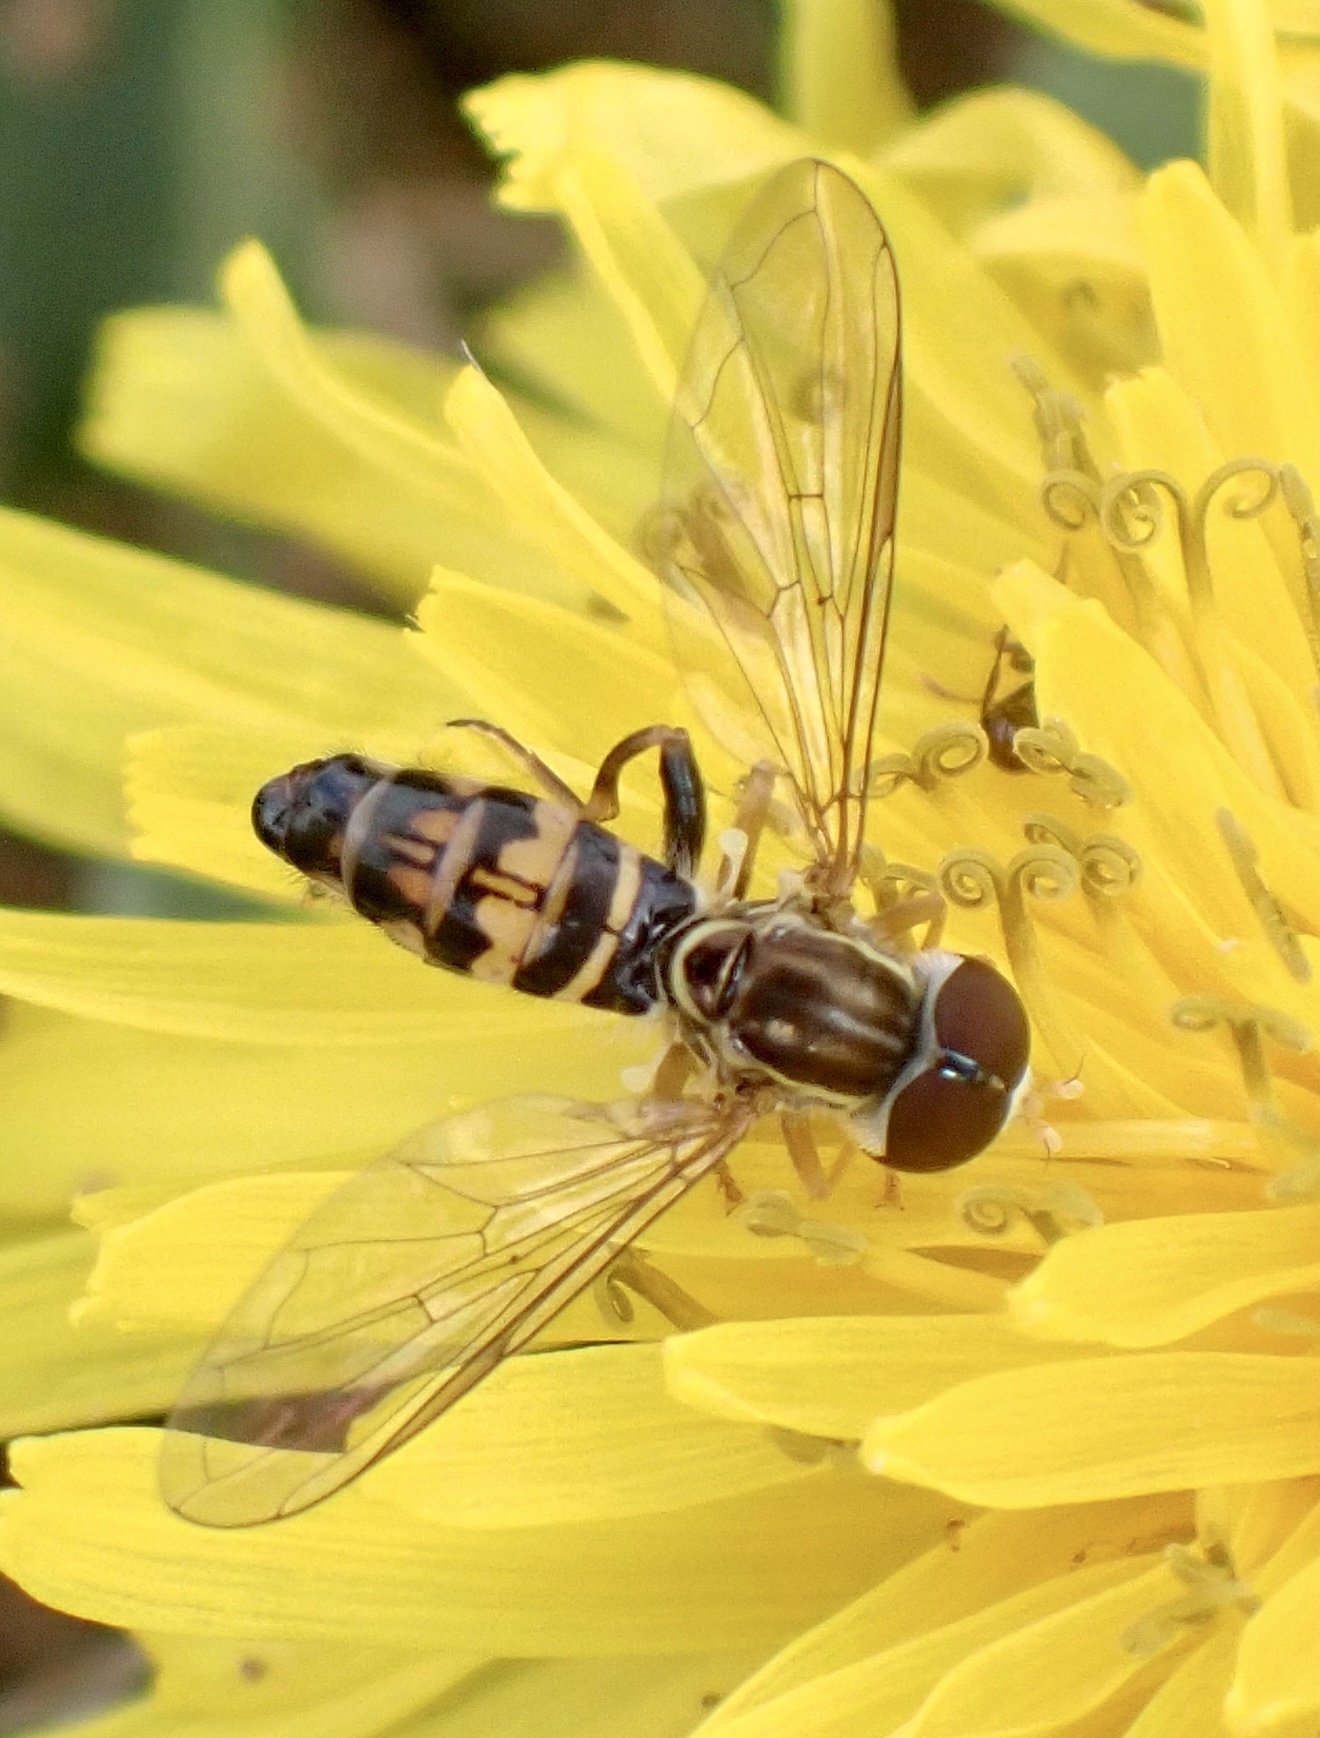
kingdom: Animalia
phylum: Arthropoda
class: Insecta
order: Diptera
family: Syrphidae
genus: Toxomerus
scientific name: Toxomerus geminatus
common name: Eastern calligrapher
